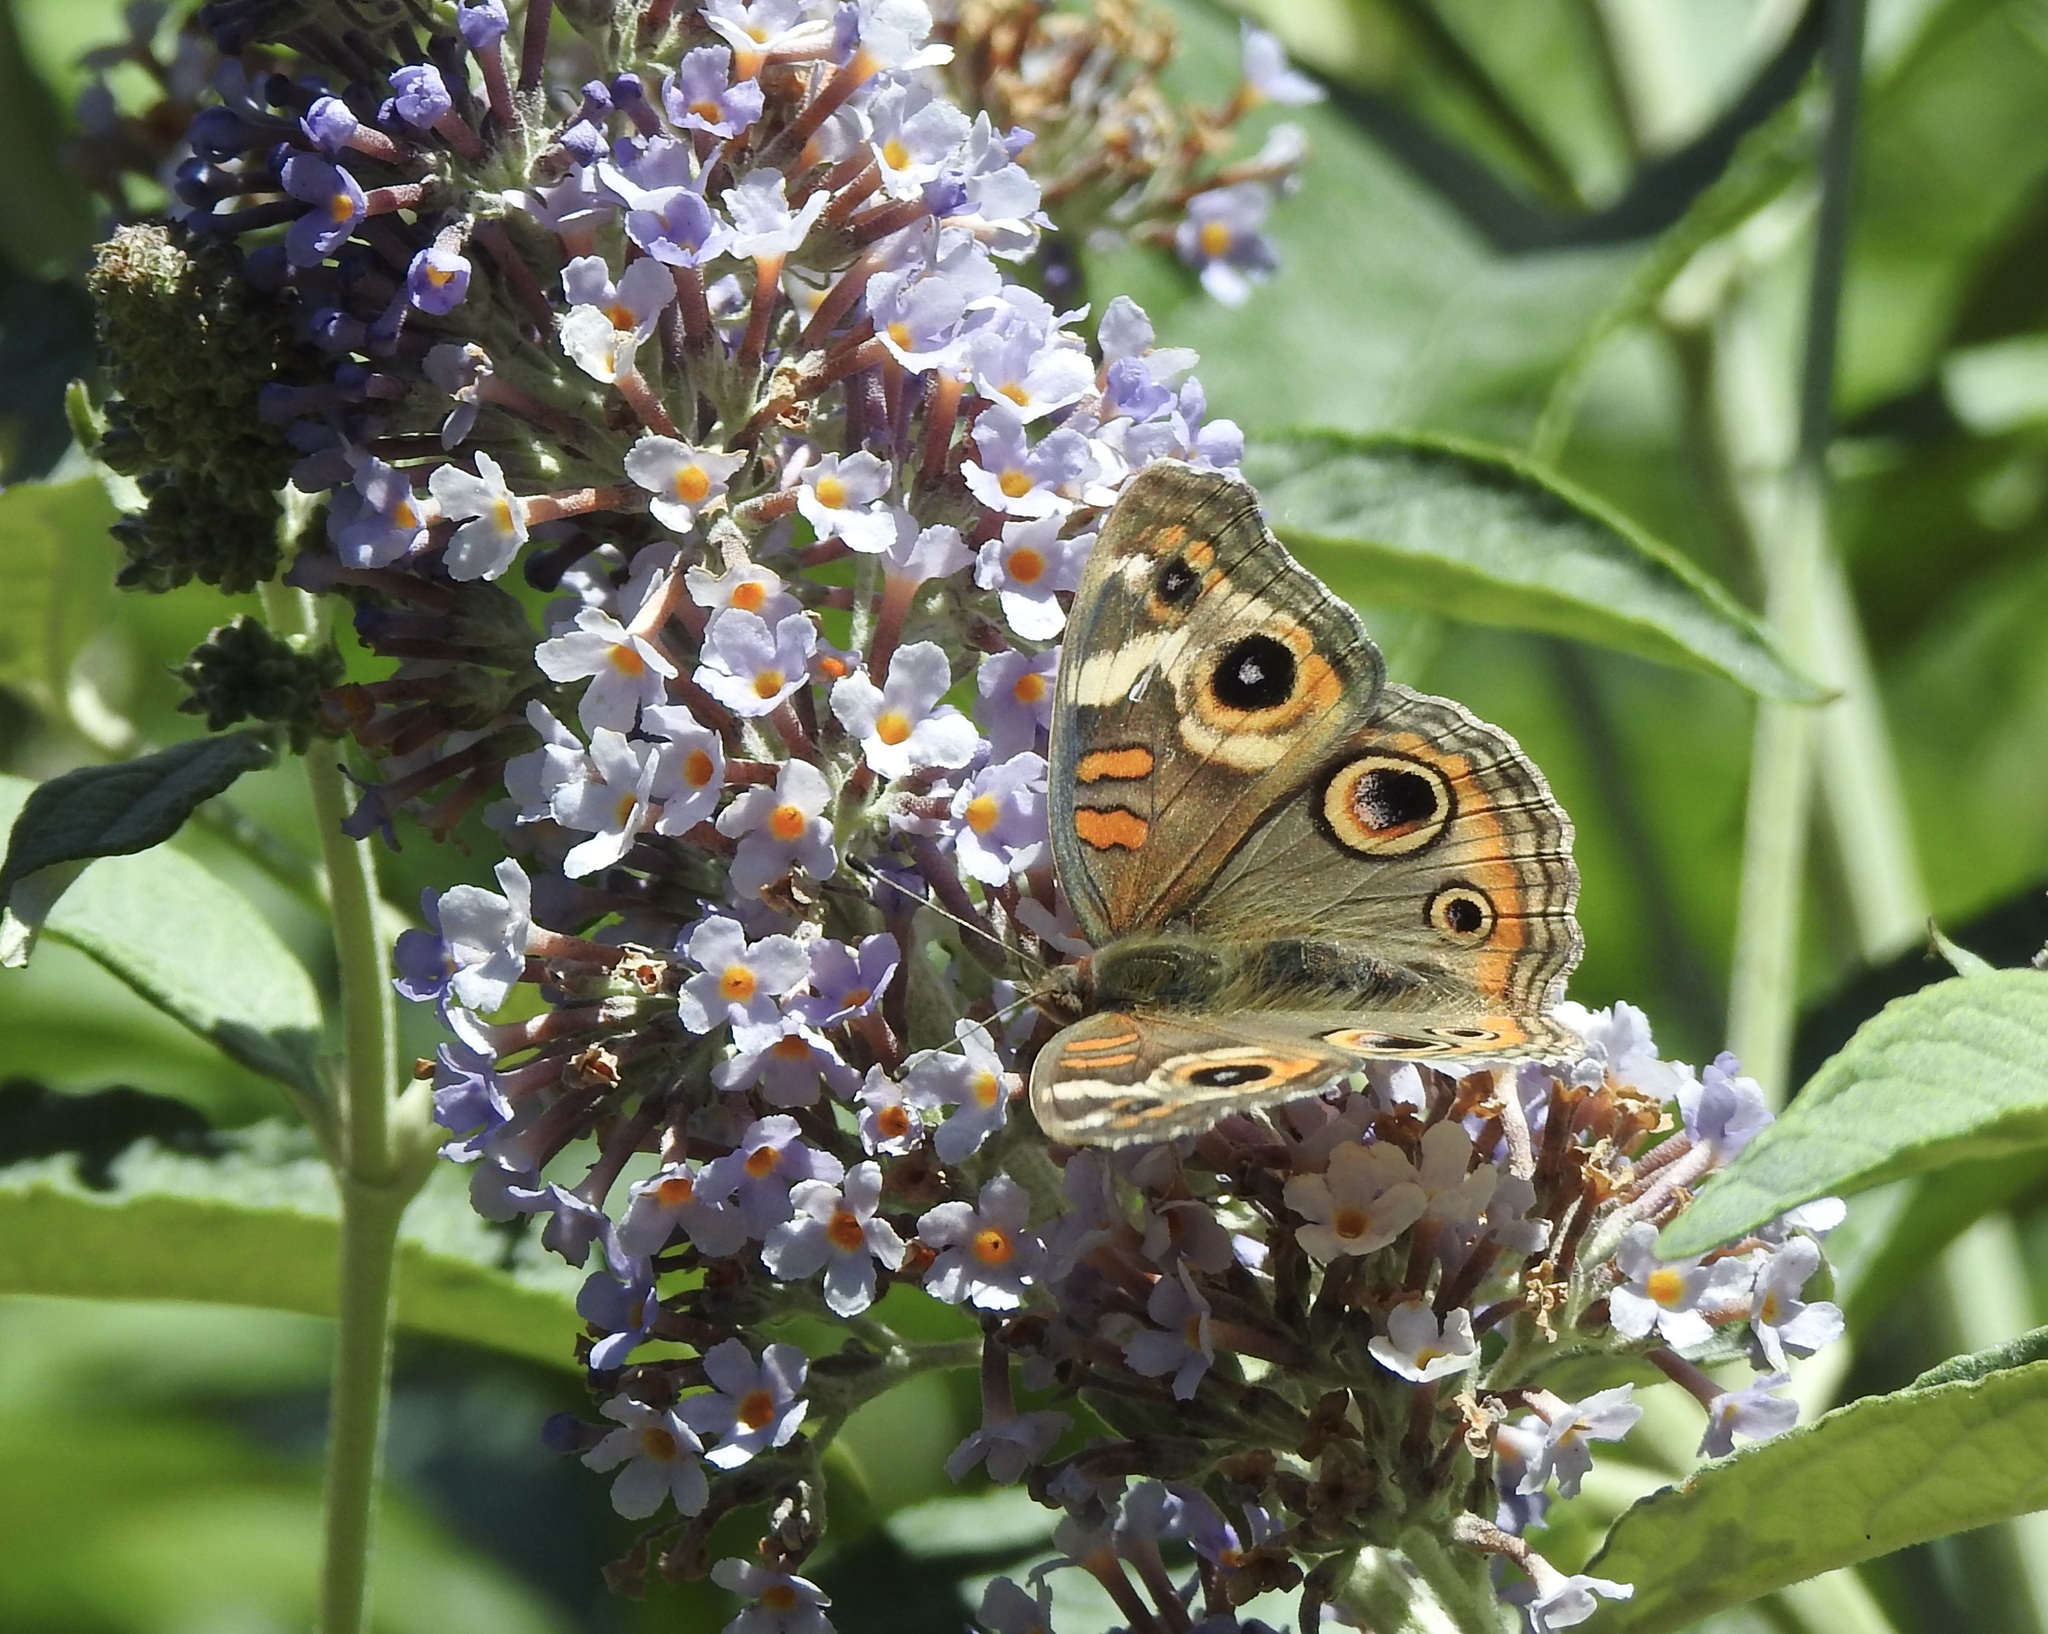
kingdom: Animalia
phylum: Arthropoda
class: Insecta
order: Lepidoptera
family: Nymphalidae
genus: Junonia
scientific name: Junonia grisea
